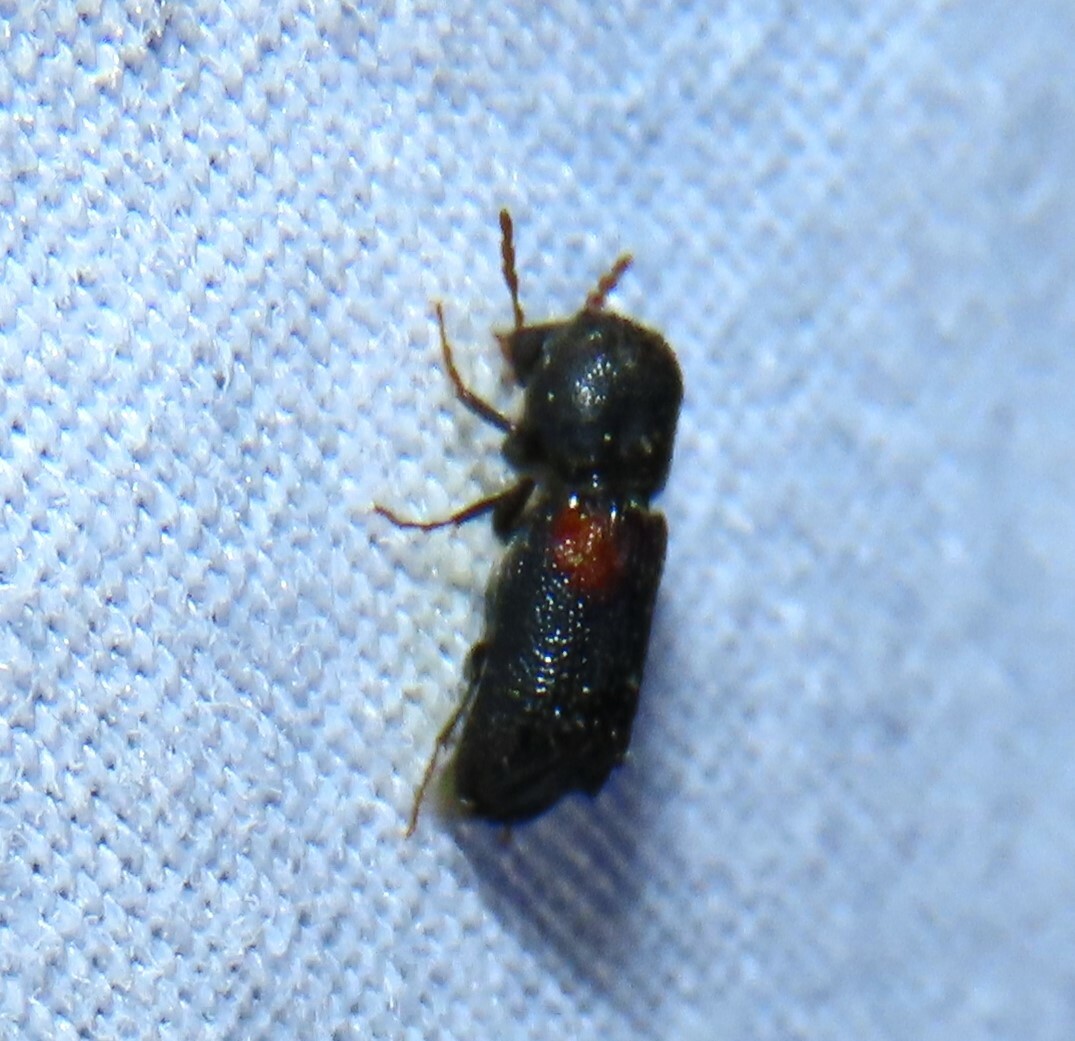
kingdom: Animalia
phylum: Arthropoda
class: Insecta
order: Coleoptera
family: Bostrichidae
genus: Xylobiops
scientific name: Xylobiops basilaris
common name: Red-shouldered bostrichid
